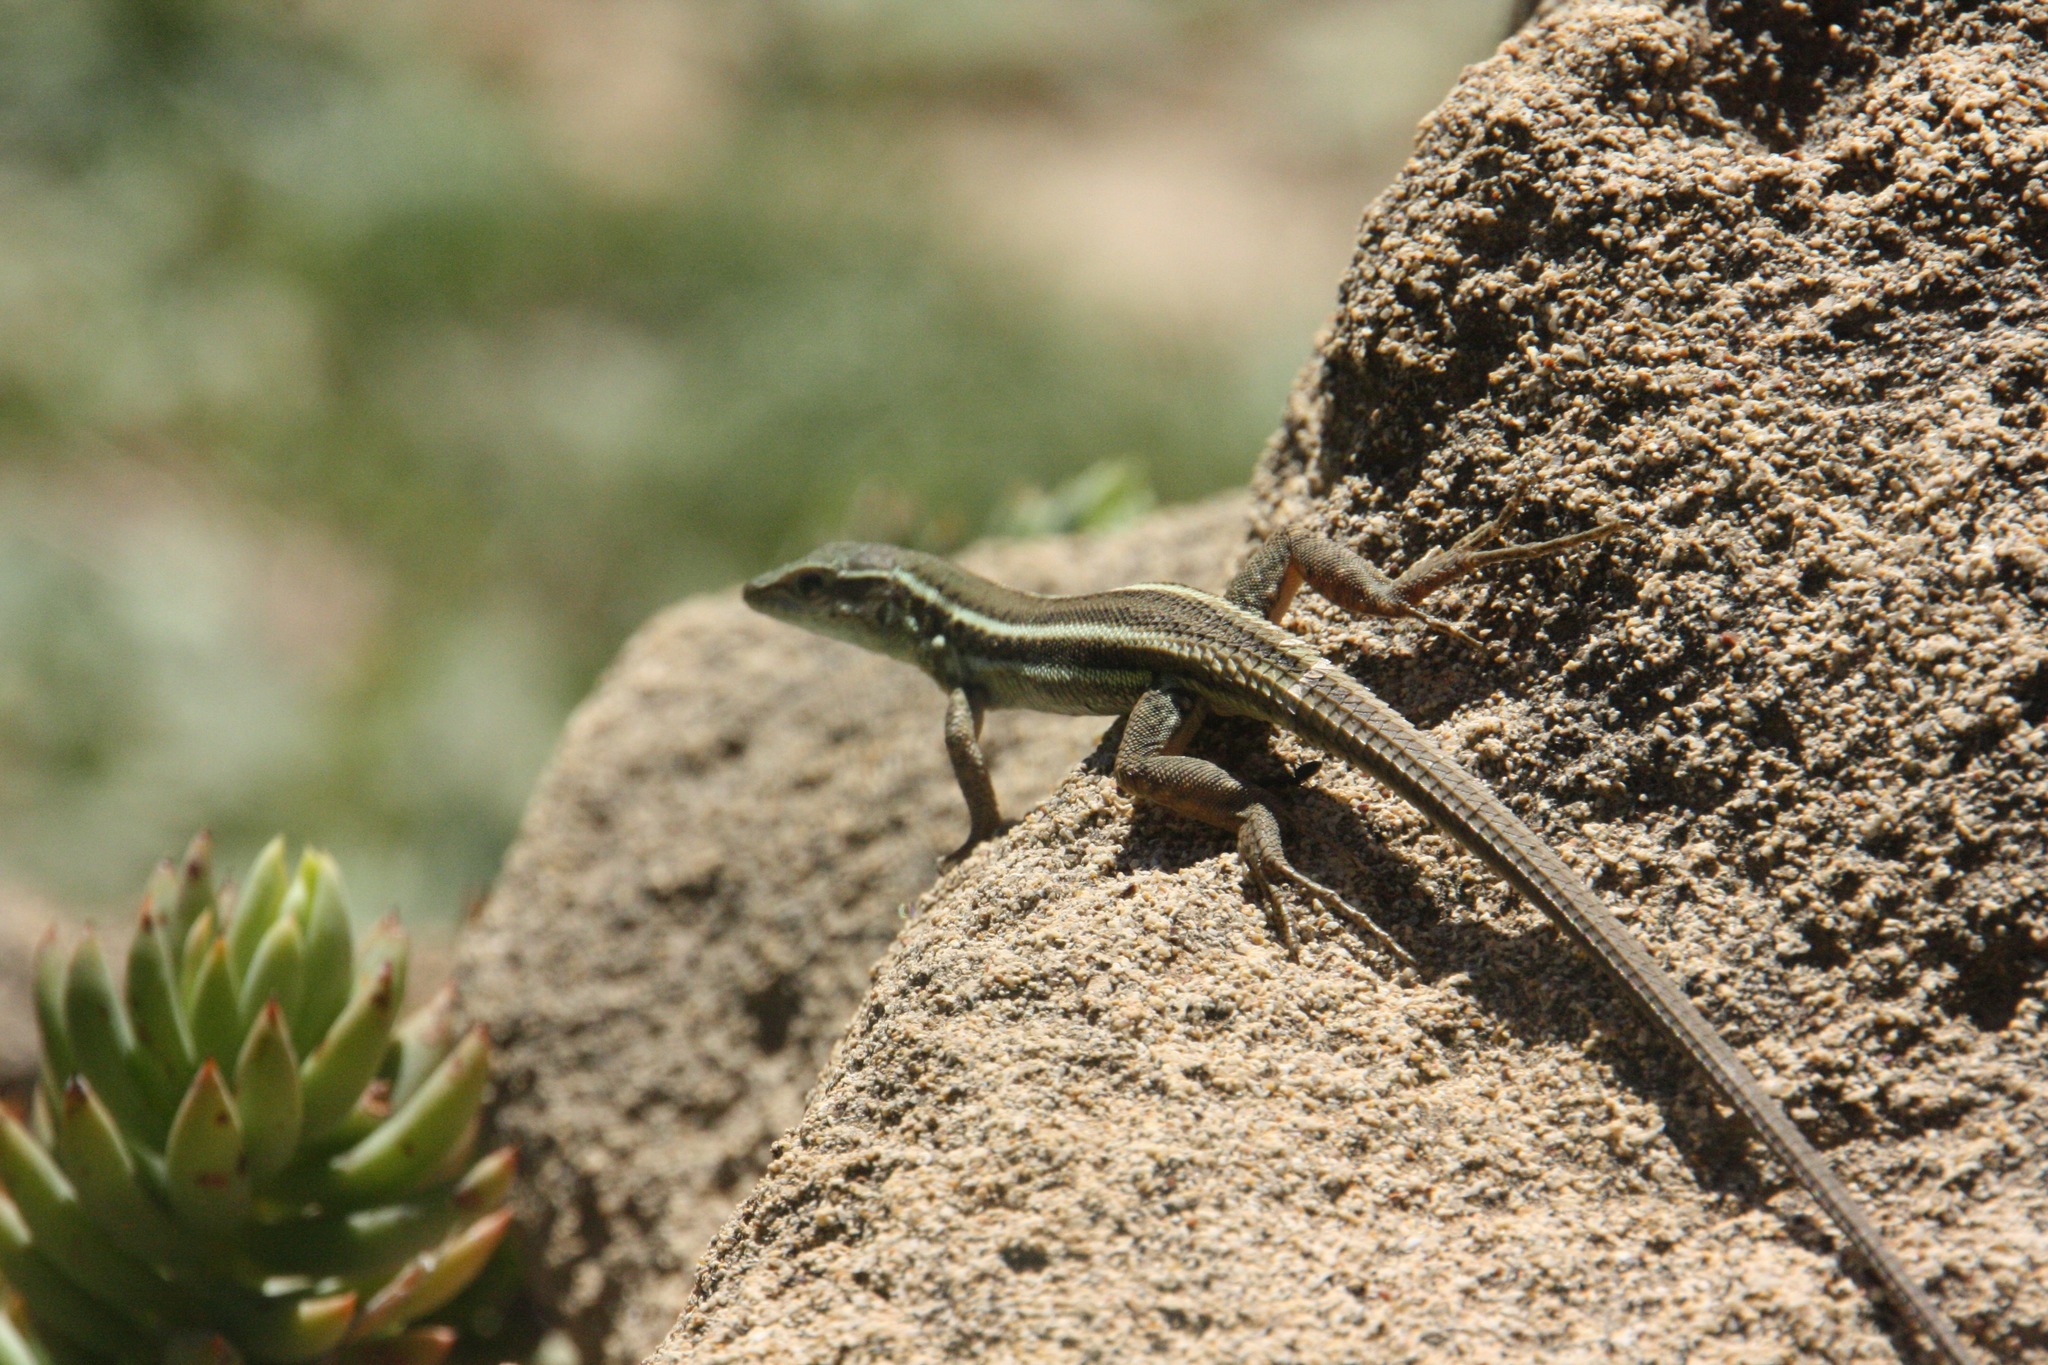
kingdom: Animalia
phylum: Chordata
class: Squamata
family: Lacertidae
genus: Ophisops
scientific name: Ophisops elegans
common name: Snake-eyed lizard
